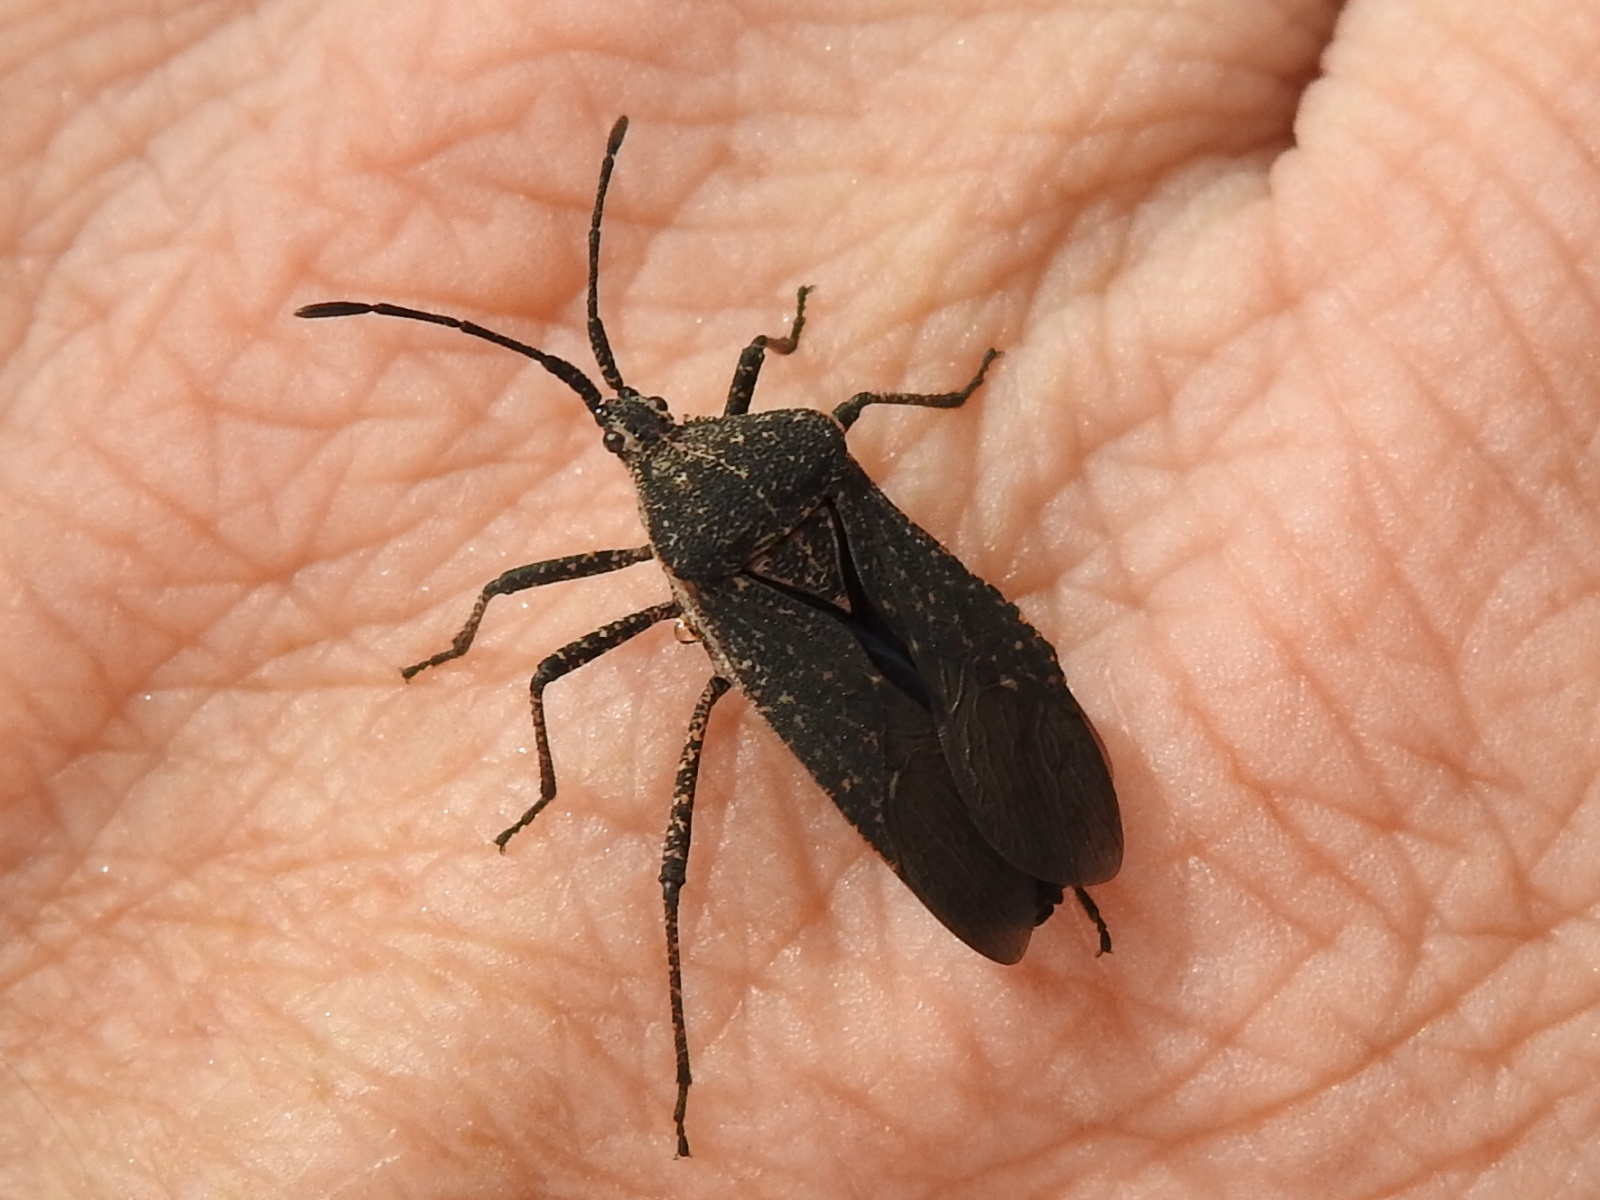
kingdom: Animalia
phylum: Arthropoda
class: Insecta
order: Hemiptera
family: Coreidae
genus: Cimolus
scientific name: Cimolus obscurus
